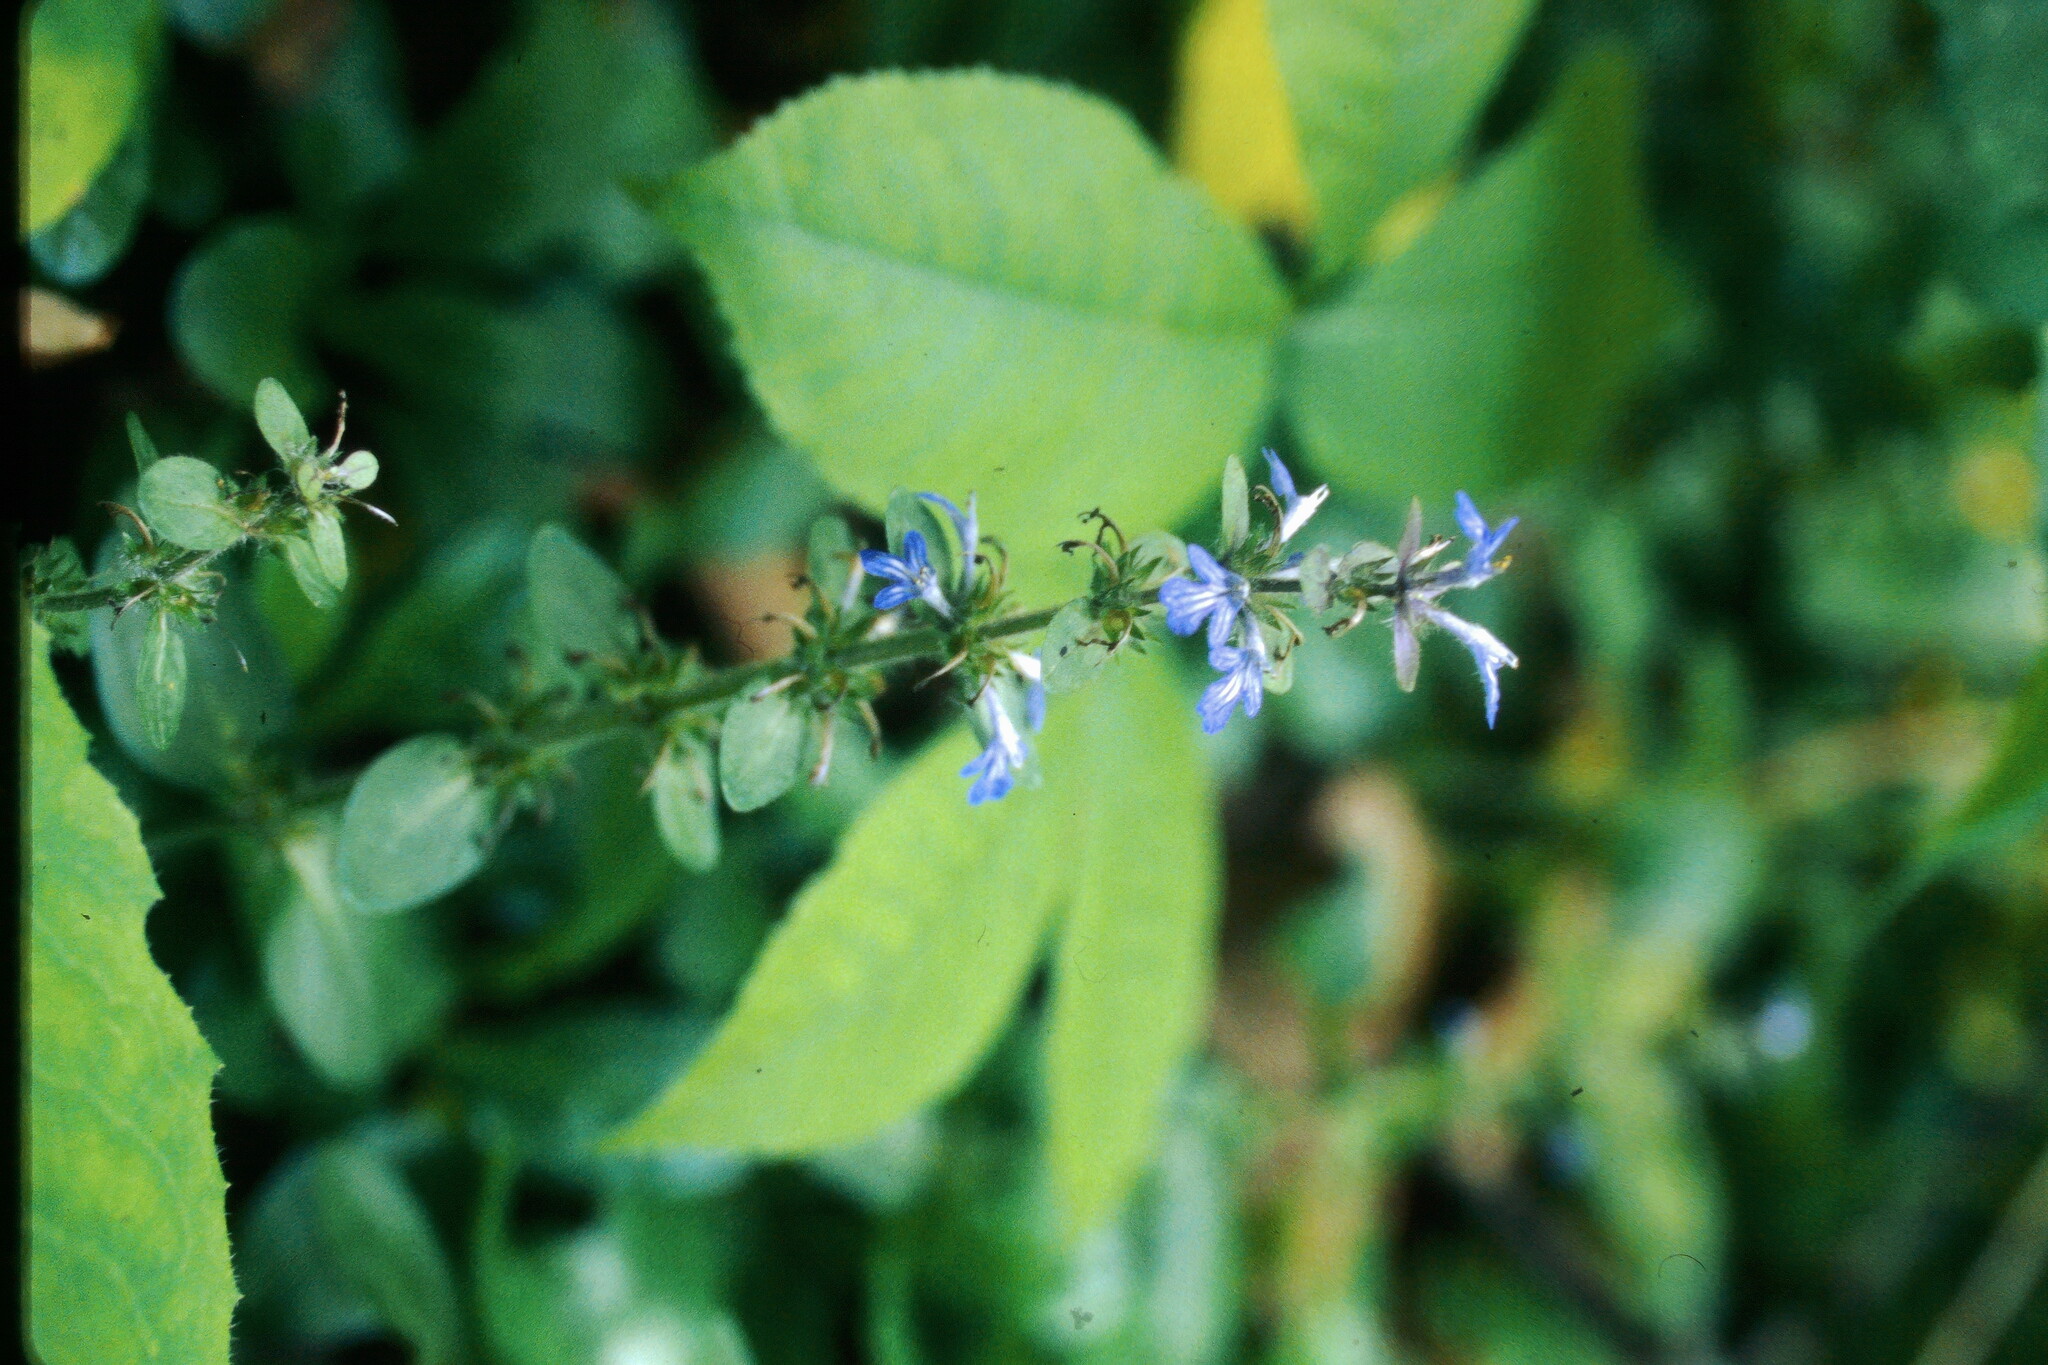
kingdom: Plantae
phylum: Tracheophyta
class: Magnoliopsida
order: Lamiales
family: Lamiaceae
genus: Ajuga
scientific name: Ajuga reptans
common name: Bugle
